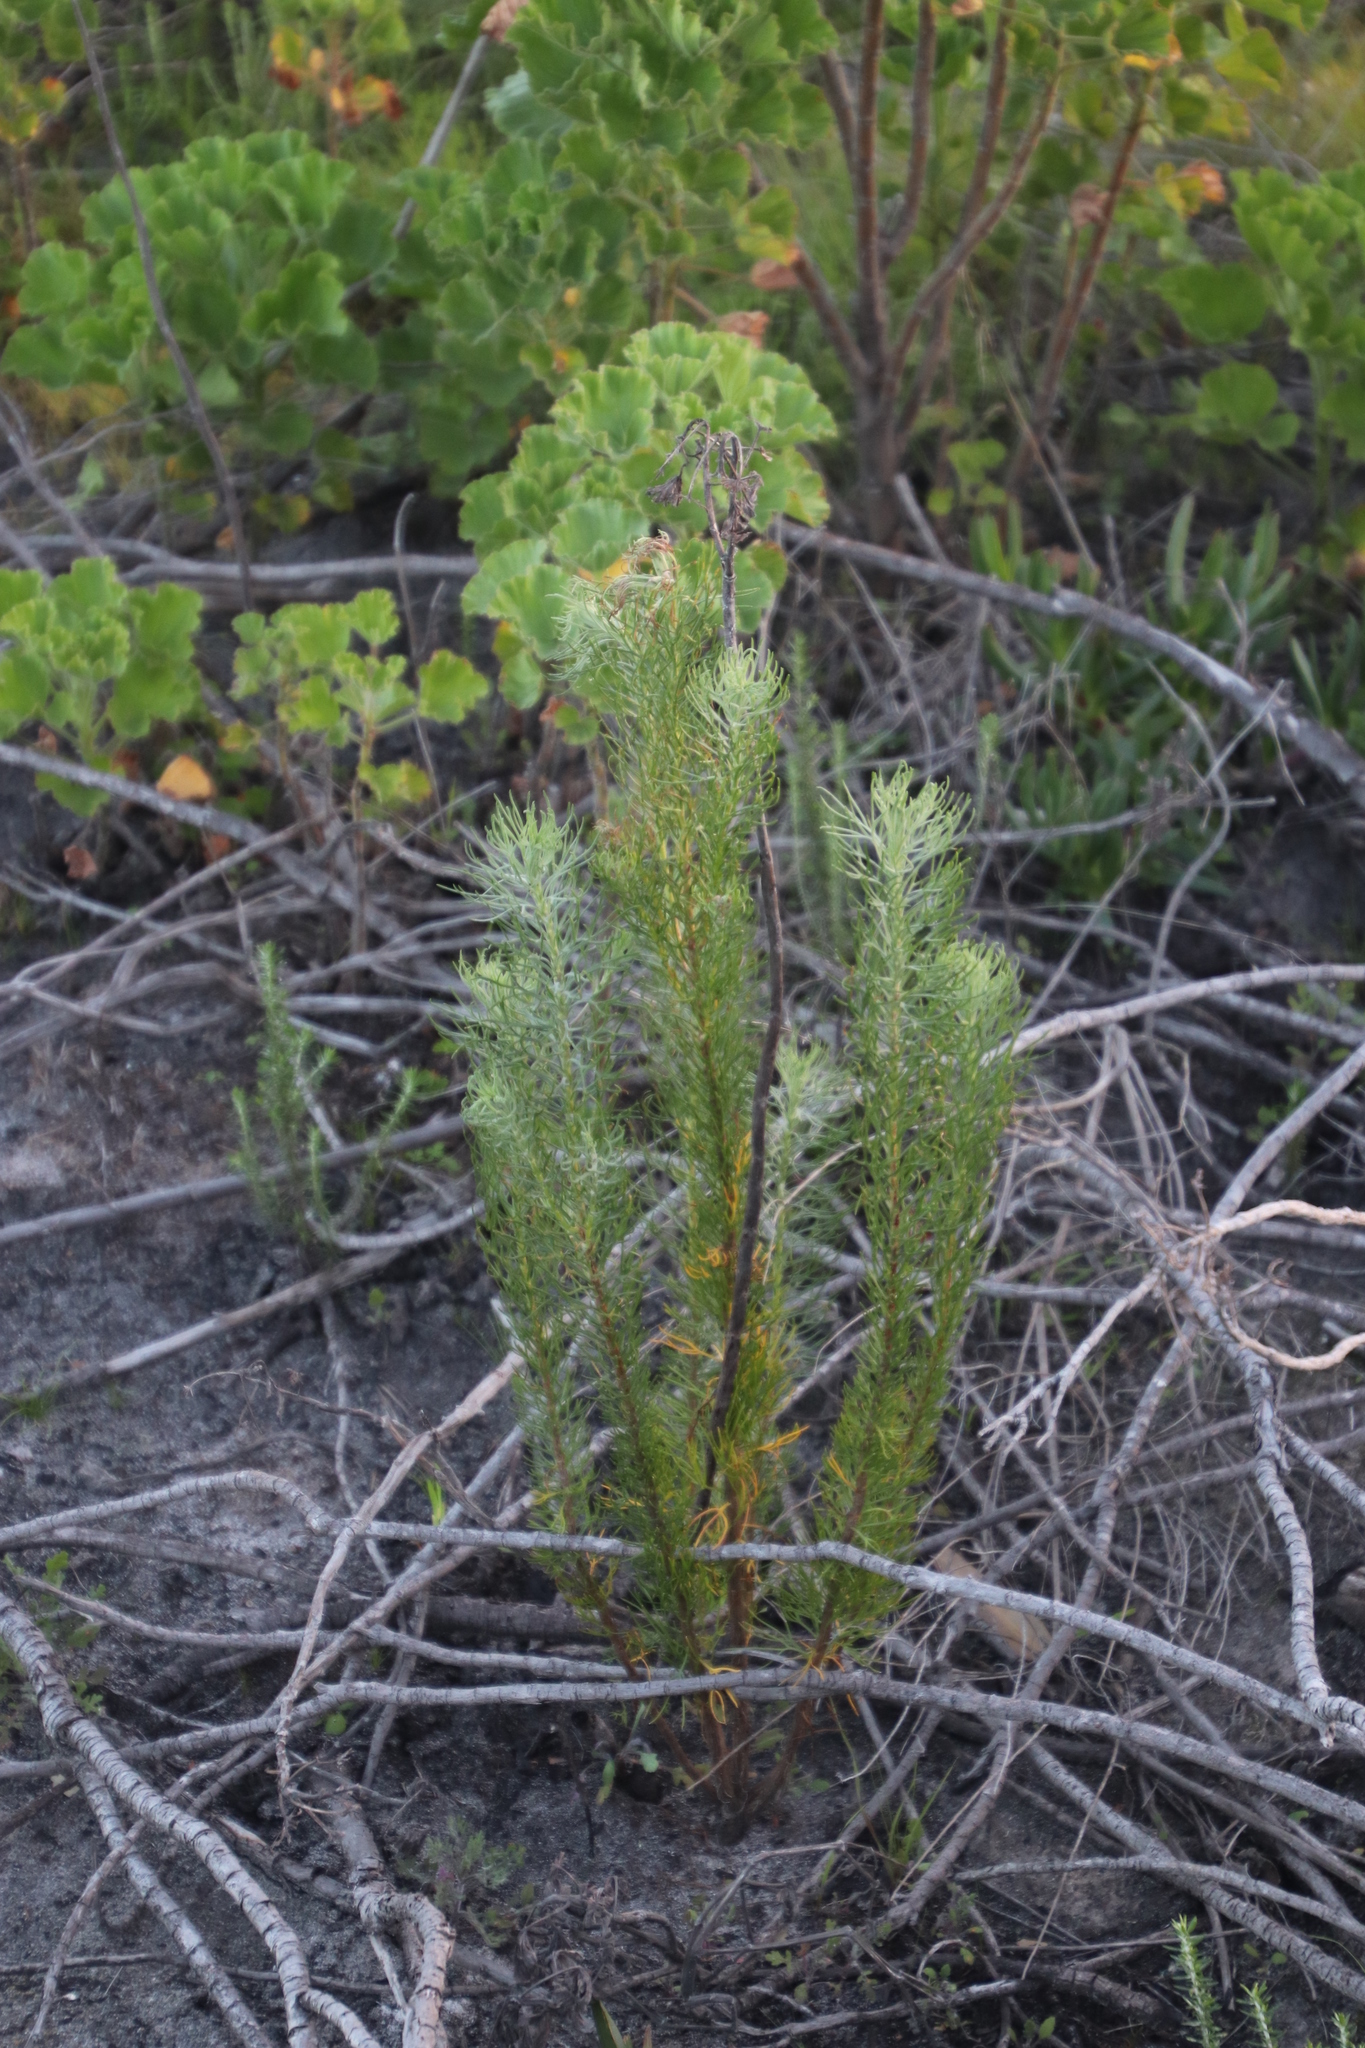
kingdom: Plantae
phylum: Tracheophyta
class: Magnoliopsida
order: Asterales
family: Asteraceae
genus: Athanasia
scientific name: Athanasia crithmifolia
